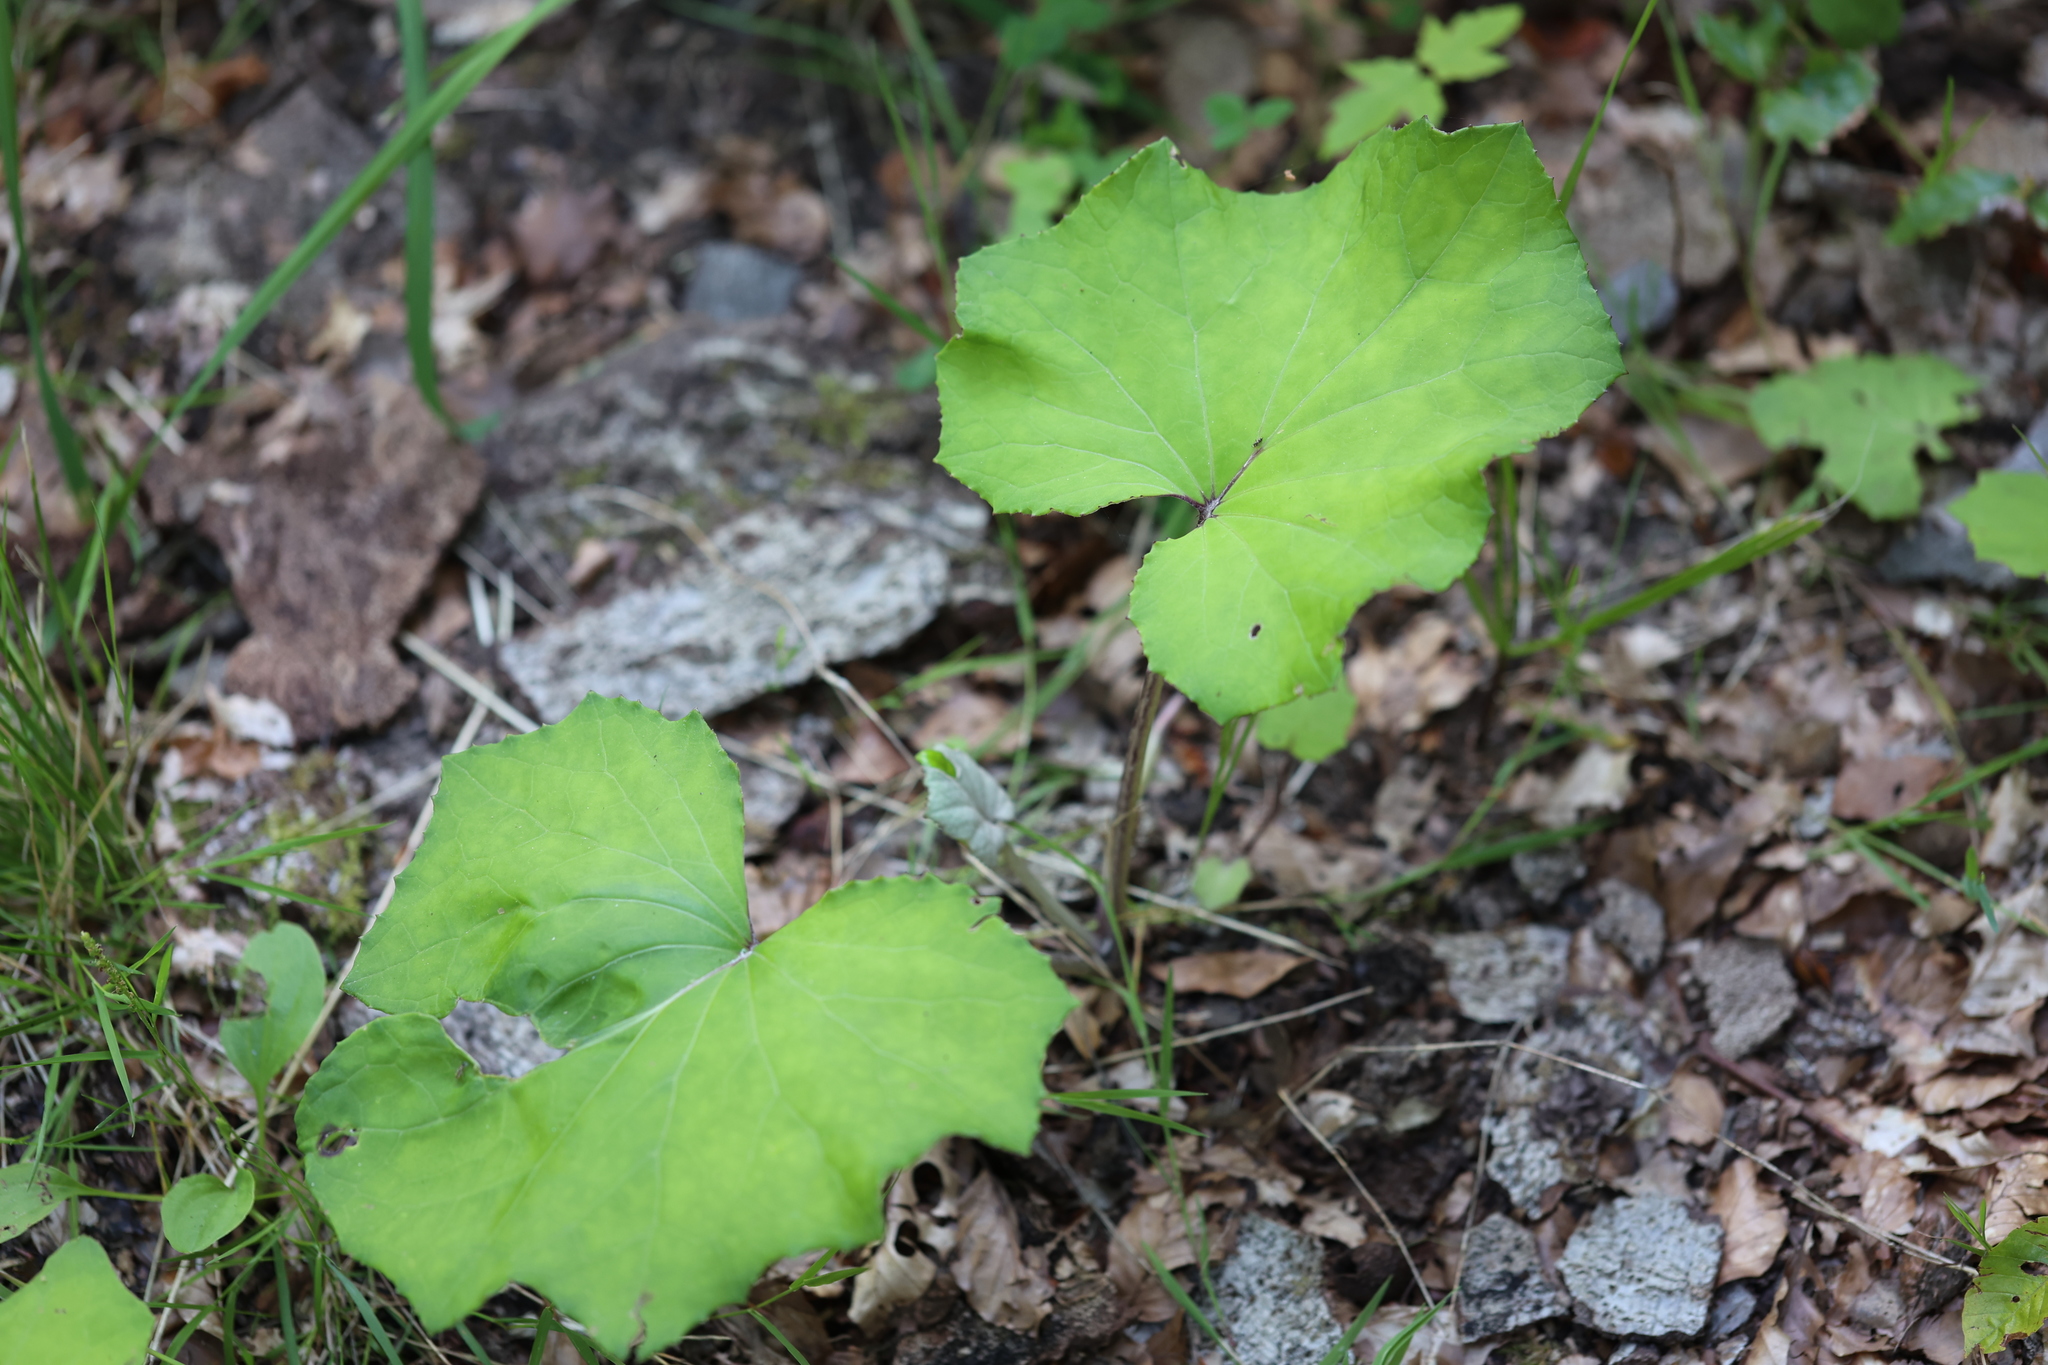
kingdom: Plantae
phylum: Tracheophyta
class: Magnoliopsida
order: Asterales
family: Asteraceae
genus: Tussilago
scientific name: Tussilago farfara
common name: Coltsfoot
